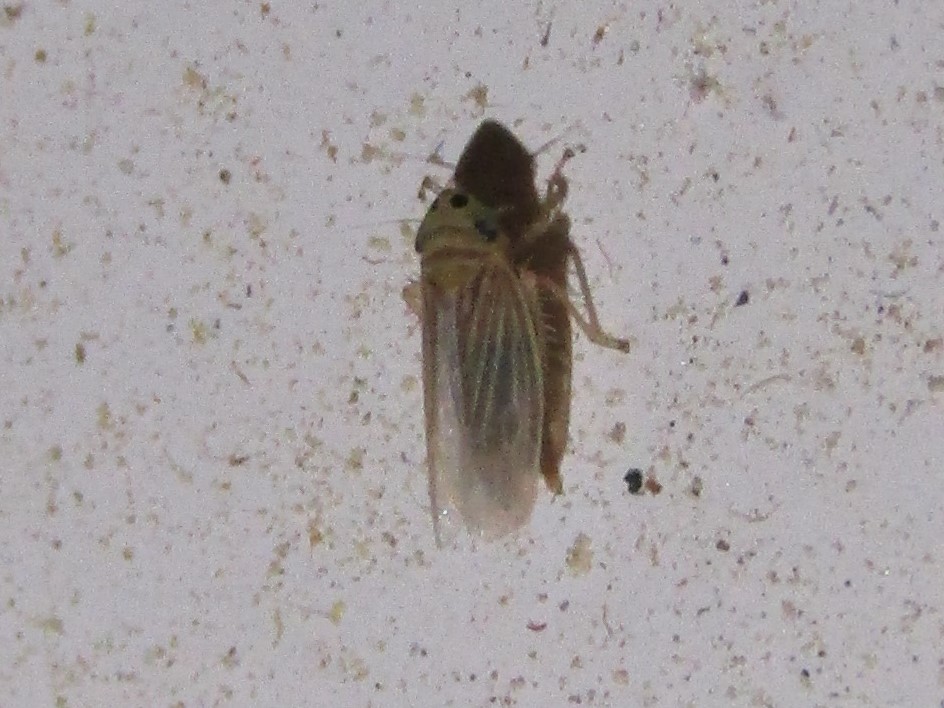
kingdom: Animalia
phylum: Arthropoda
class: Insecta
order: Hemiptera
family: Cicadellidae
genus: Graminella
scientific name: Graminella villicus
